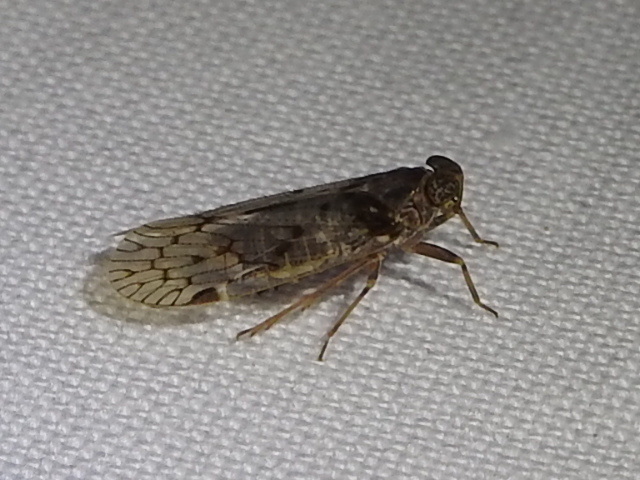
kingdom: Animalia
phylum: Arthropoda
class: Insecta
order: Hemiptera
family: Cixiidae
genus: Melanoliarus
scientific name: Melanoliarus aridus
